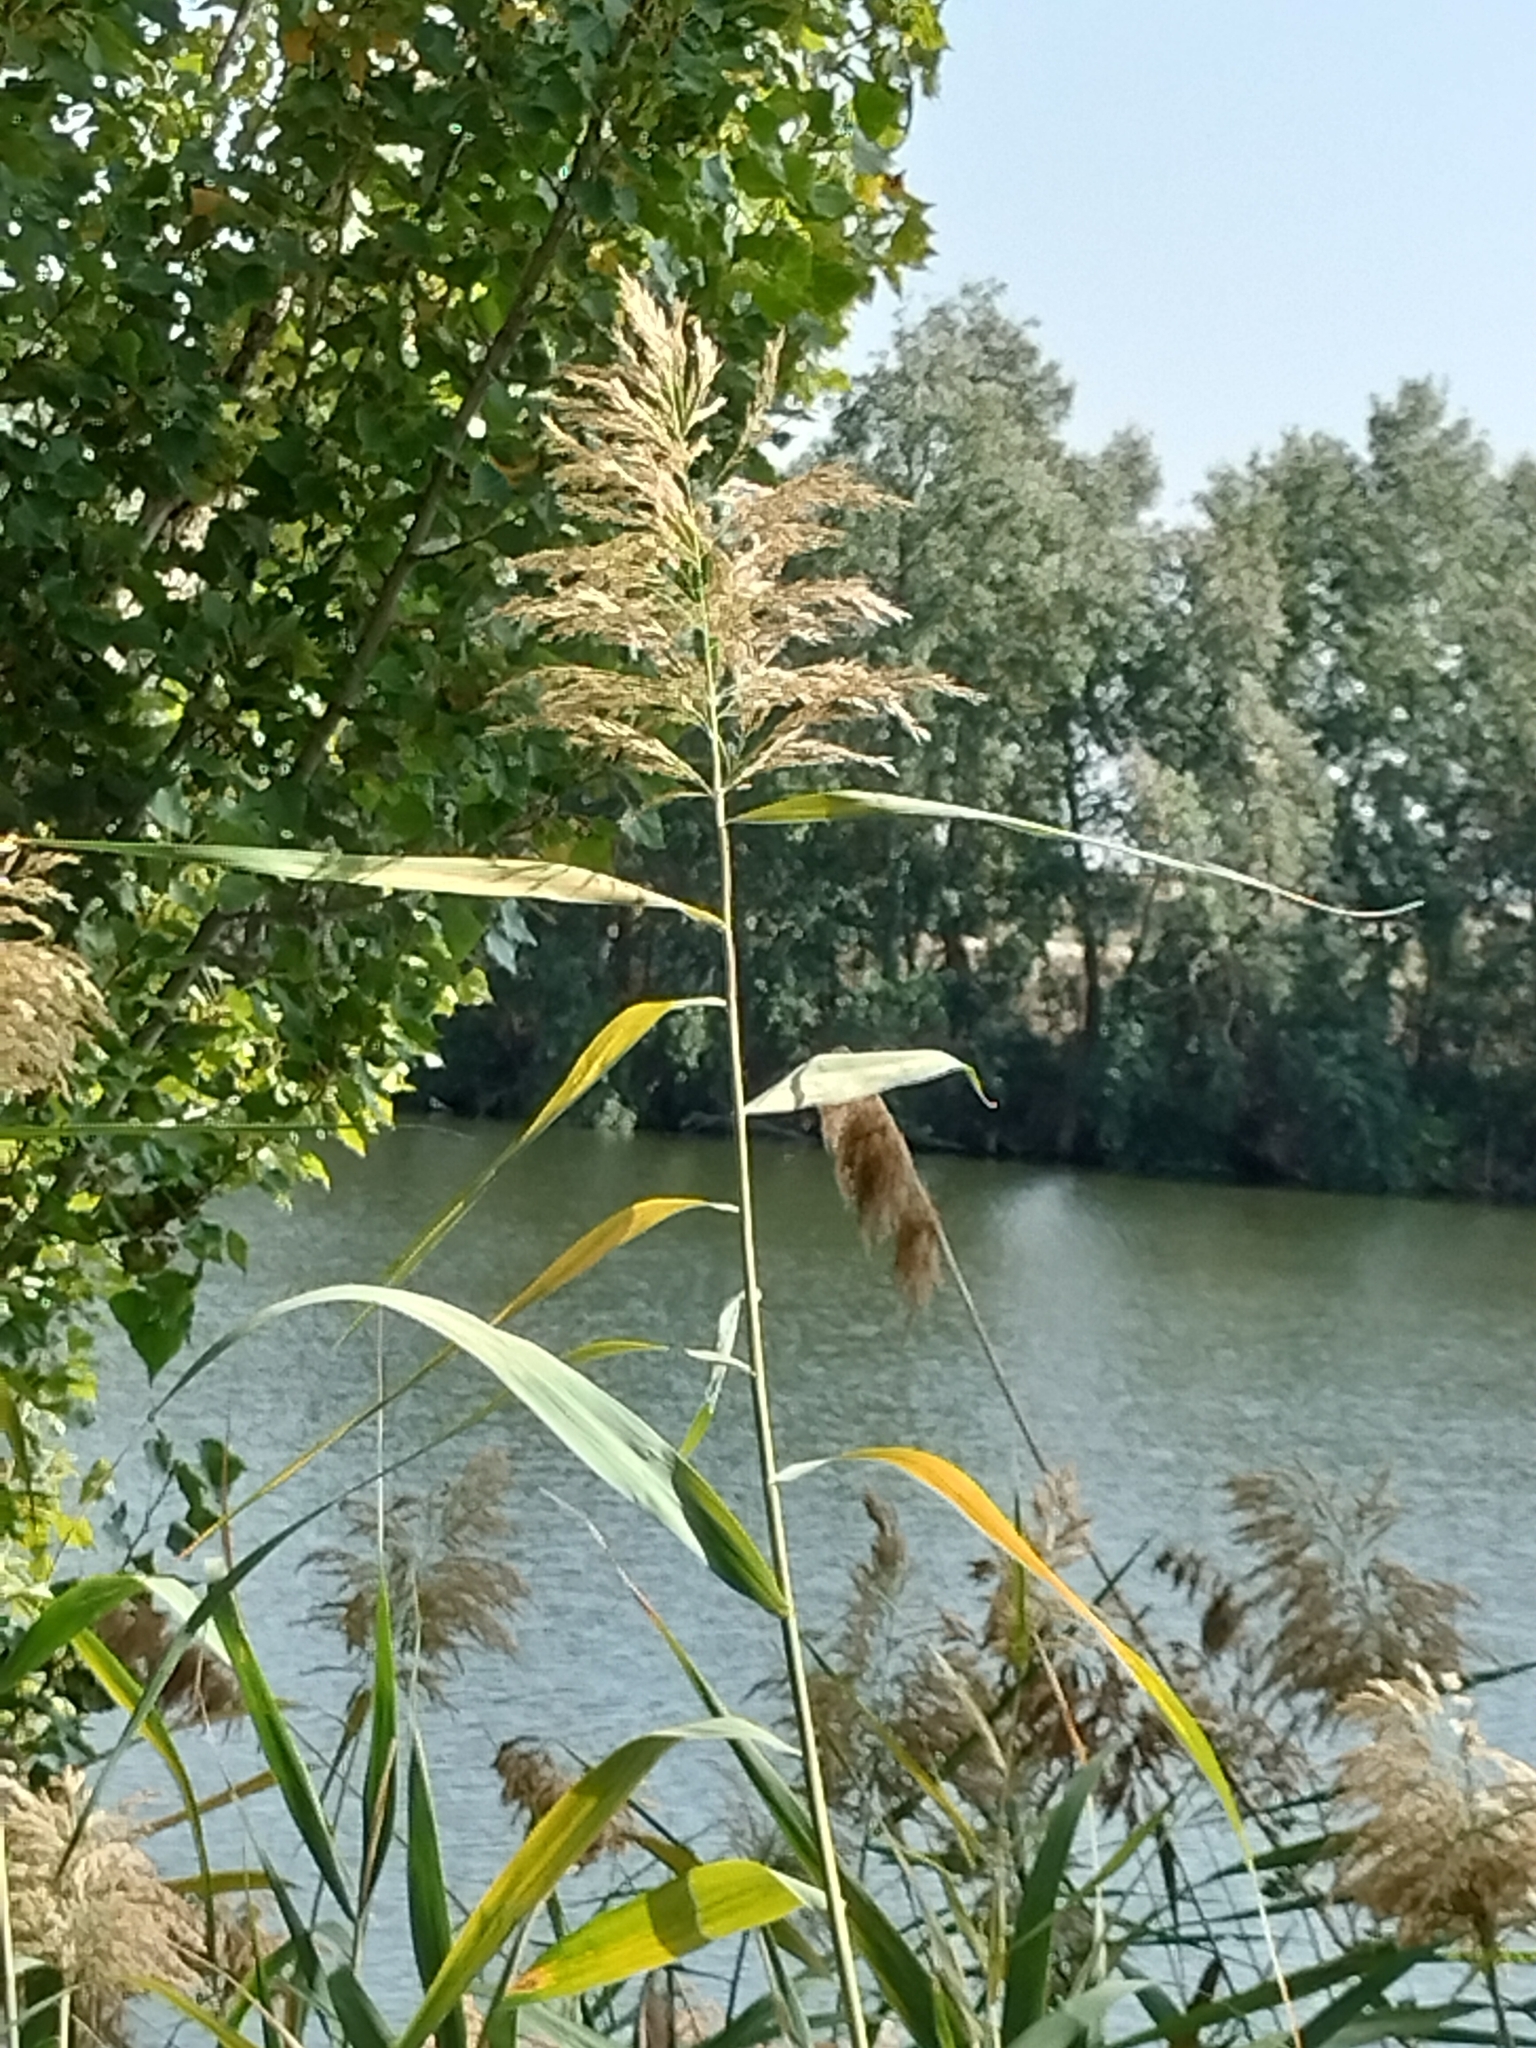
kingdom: Plantae
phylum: Tracheophyta
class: Liliopsida
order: Poales
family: Poaceae
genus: Phragmites
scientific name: Phragmites australis
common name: Common reed
